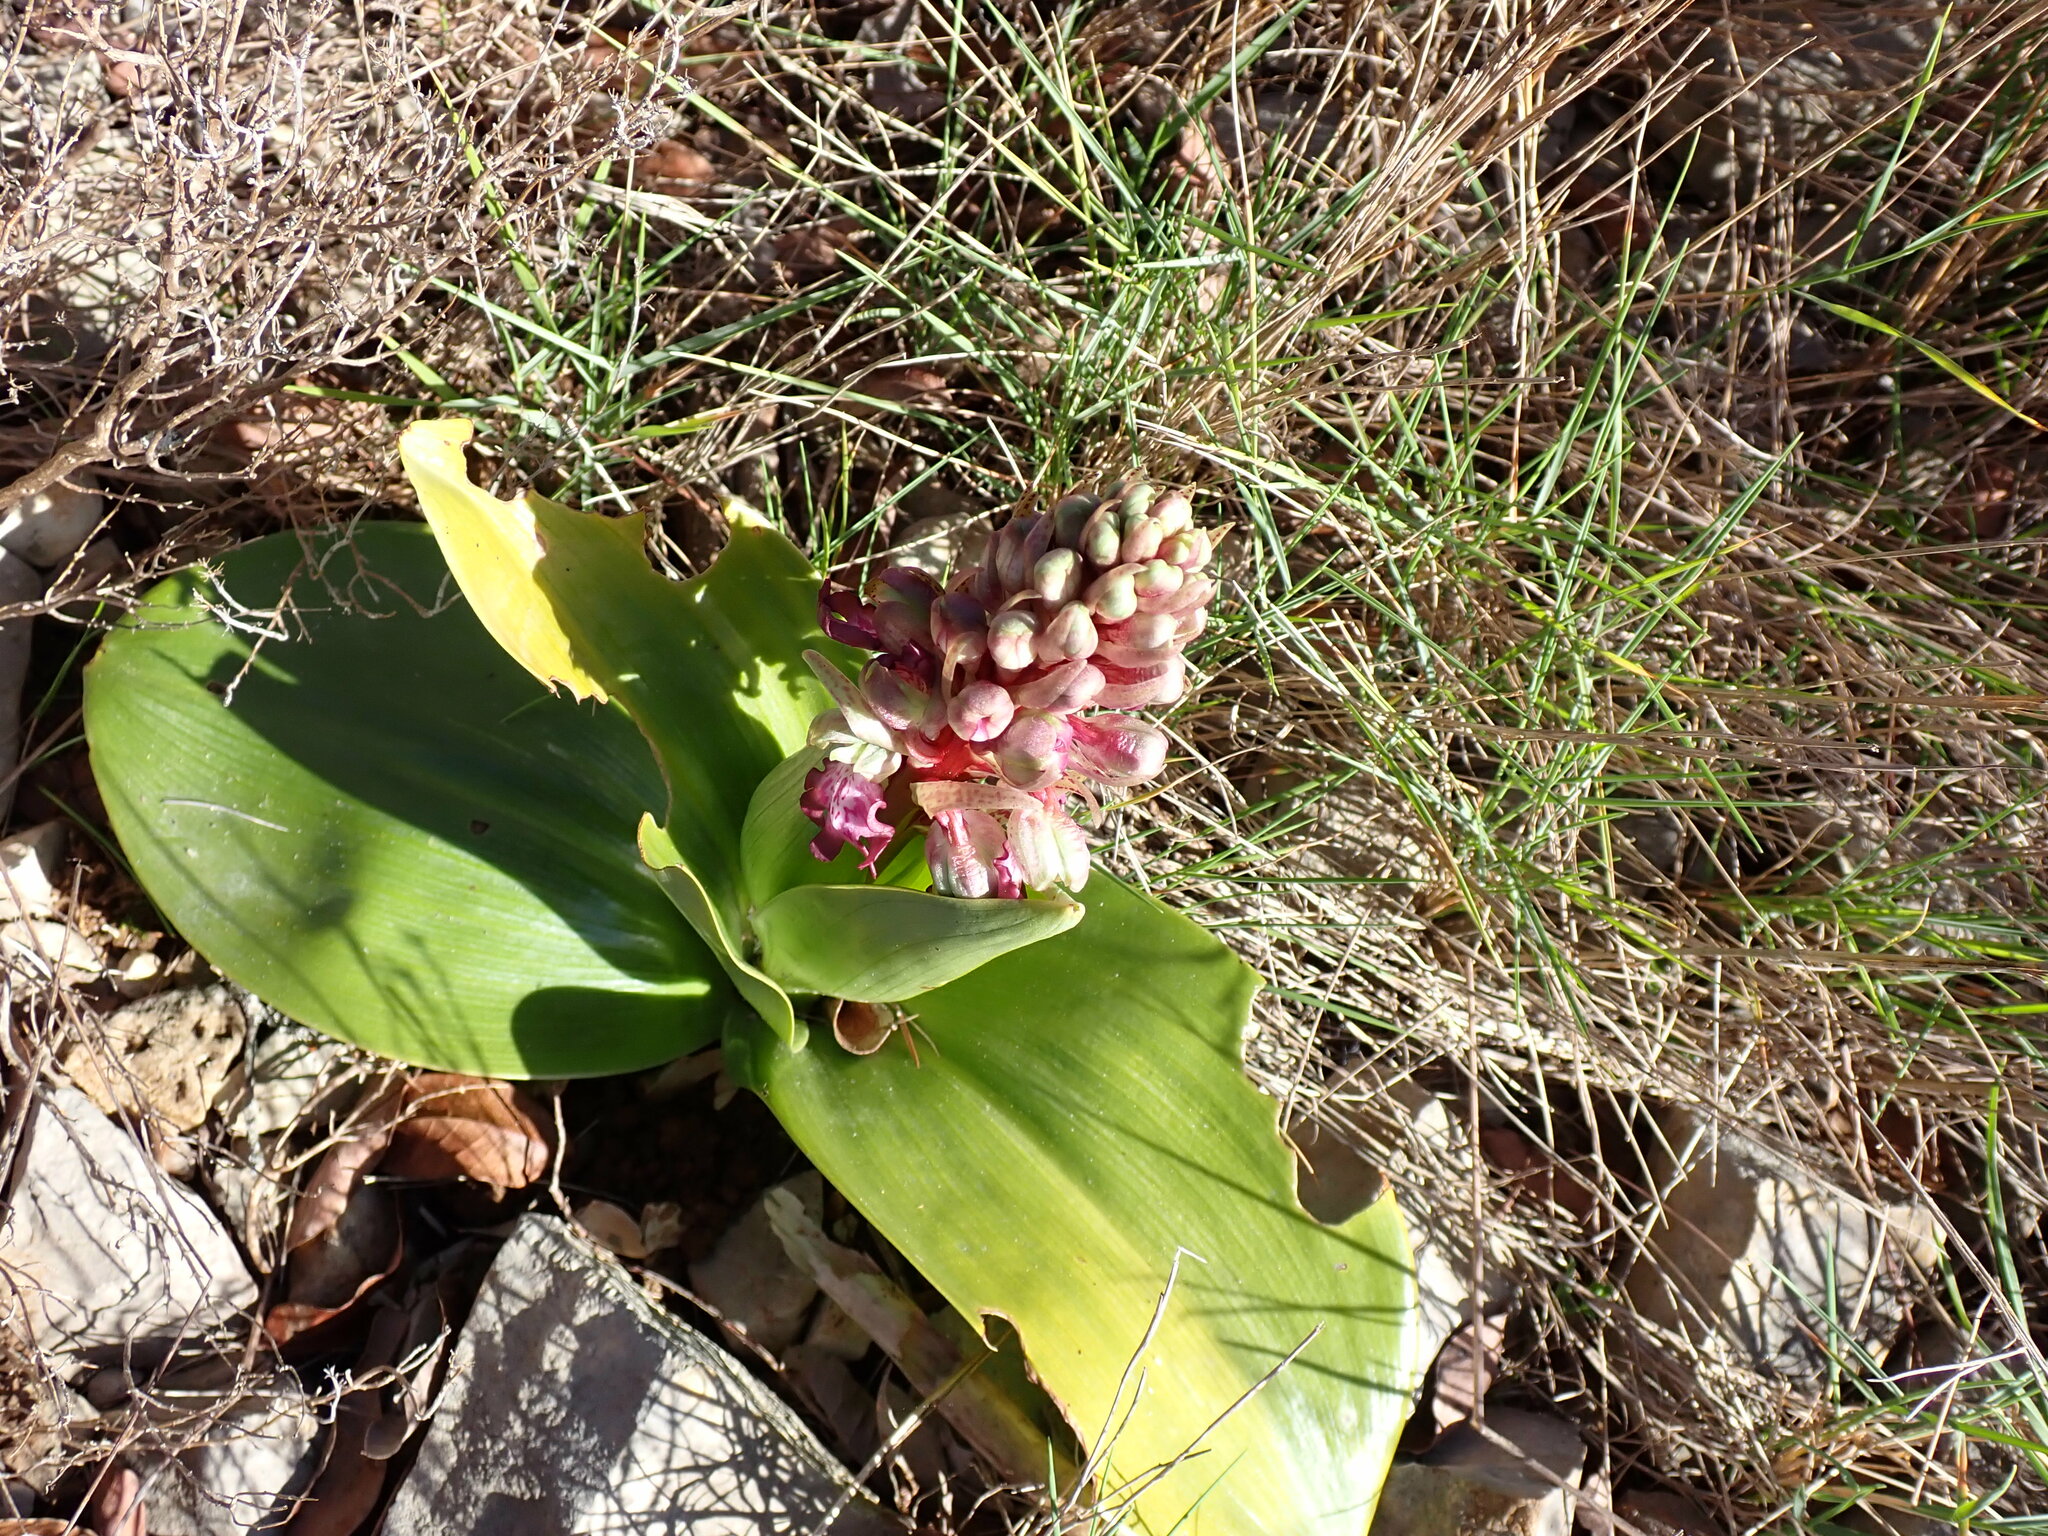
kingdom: Plantae
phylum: Tracheophyta
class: Liliopsida
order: Asparagales
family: Orchidaceae
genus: Himantoglossum
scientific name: Himantoglossum robertianum
